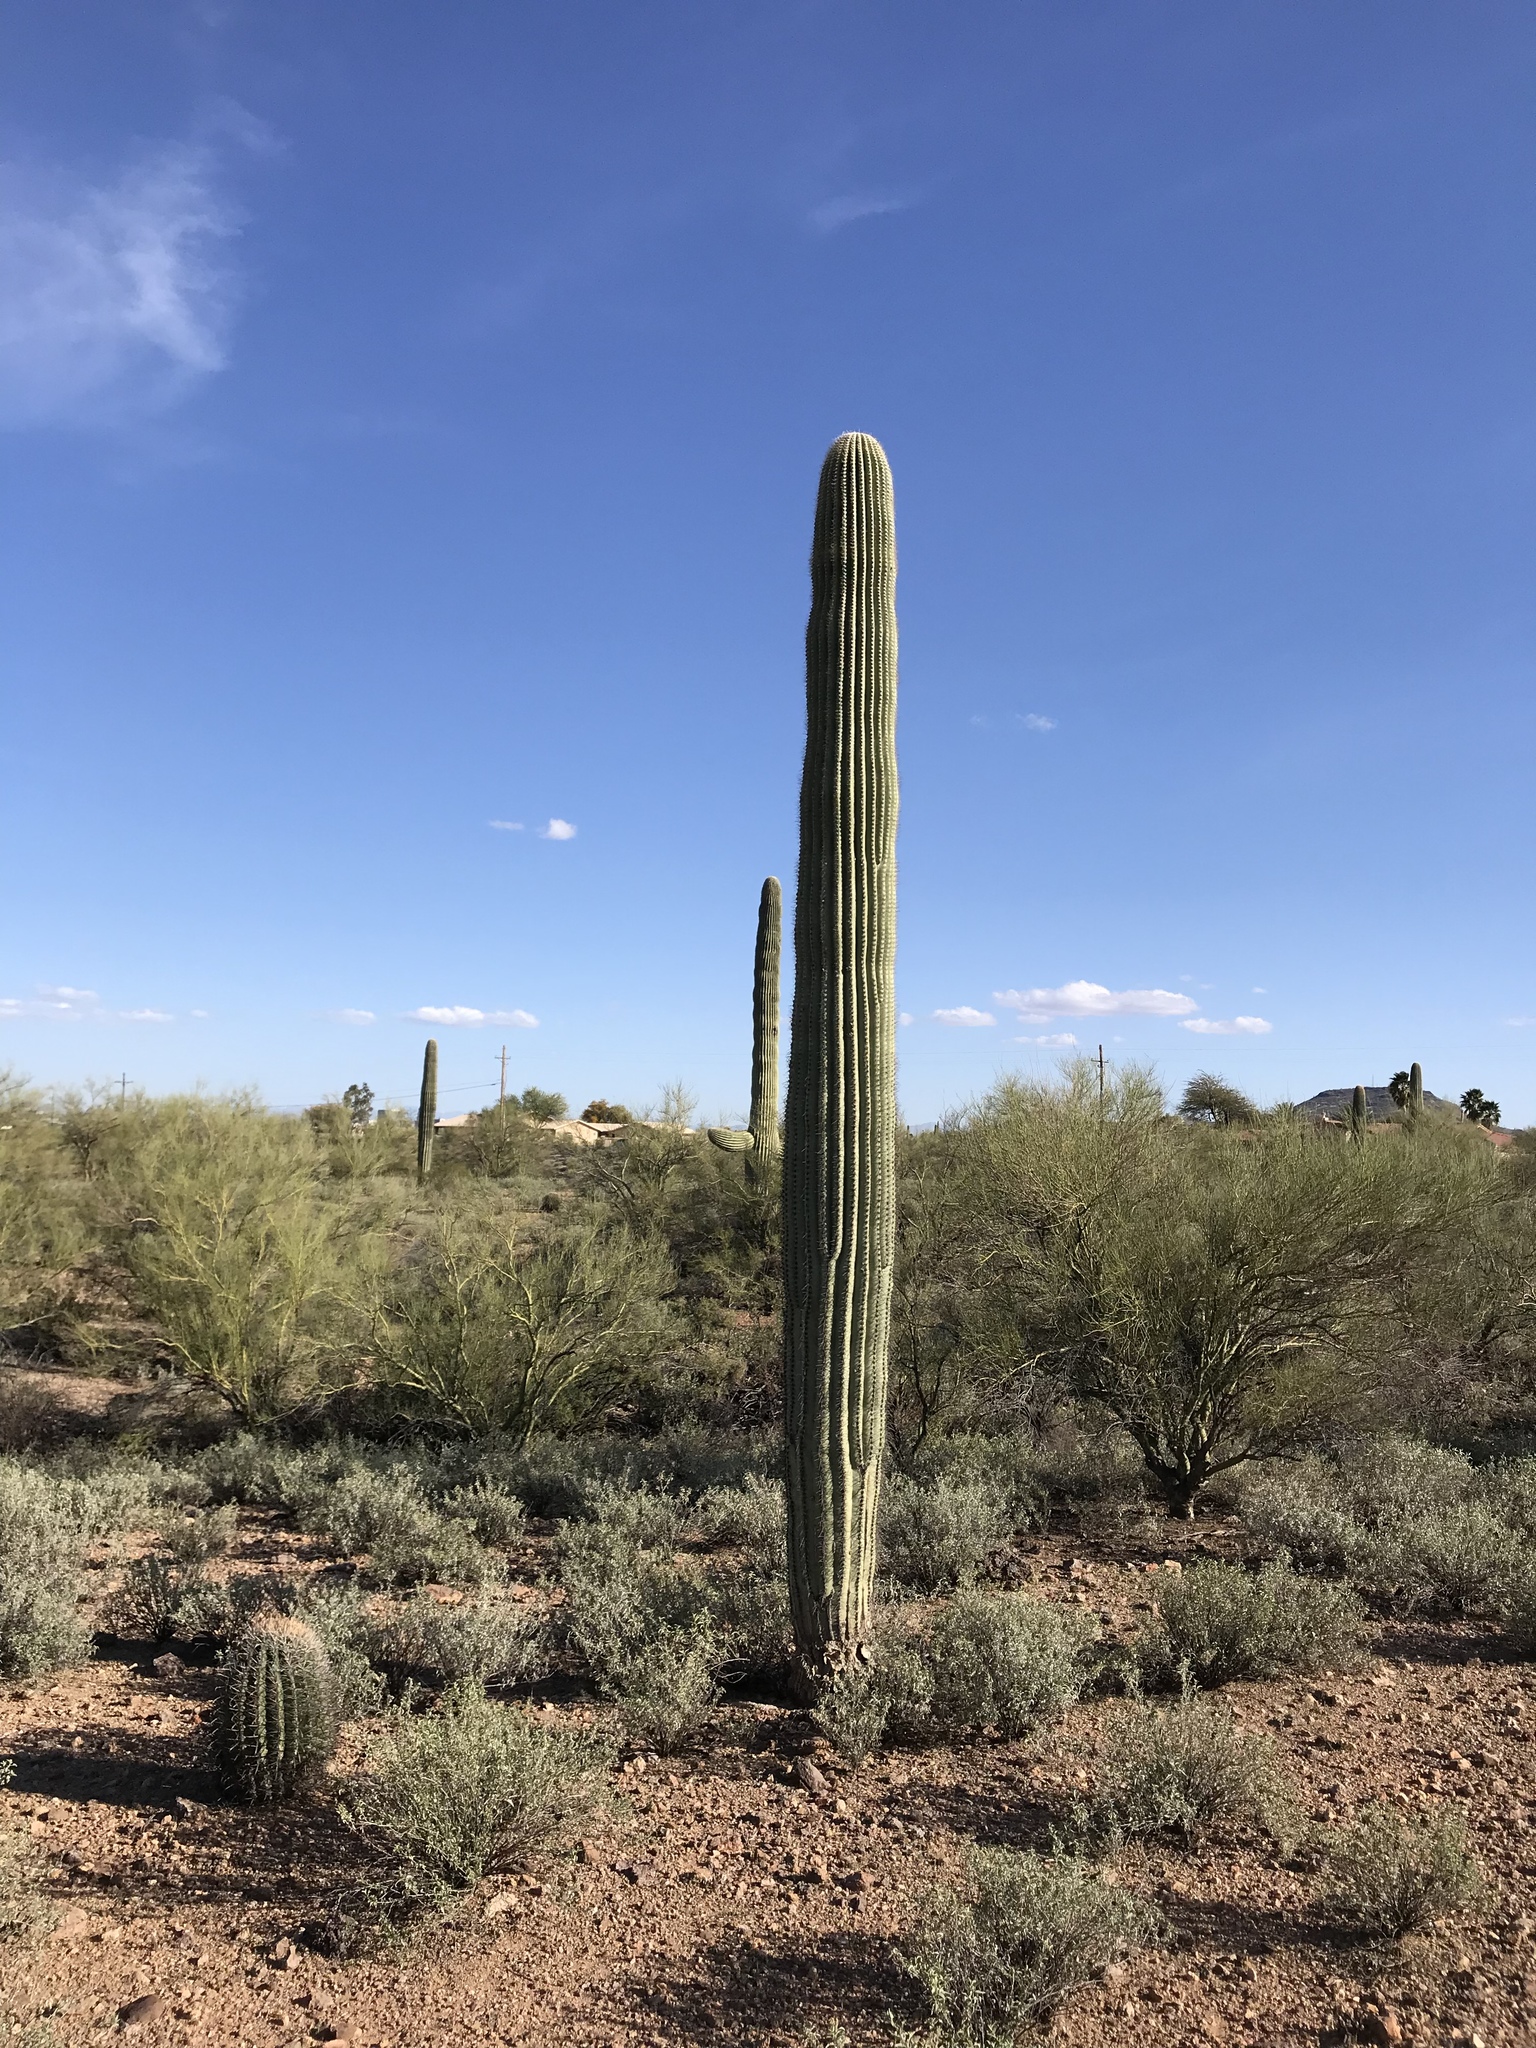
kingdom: Plantae
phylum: Tracheophyta
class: Magnoliopsida
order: Caryophyllales
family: Cactaceae
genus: Carnegiea
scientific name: Carnegiea gigantea
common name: Saguaro
